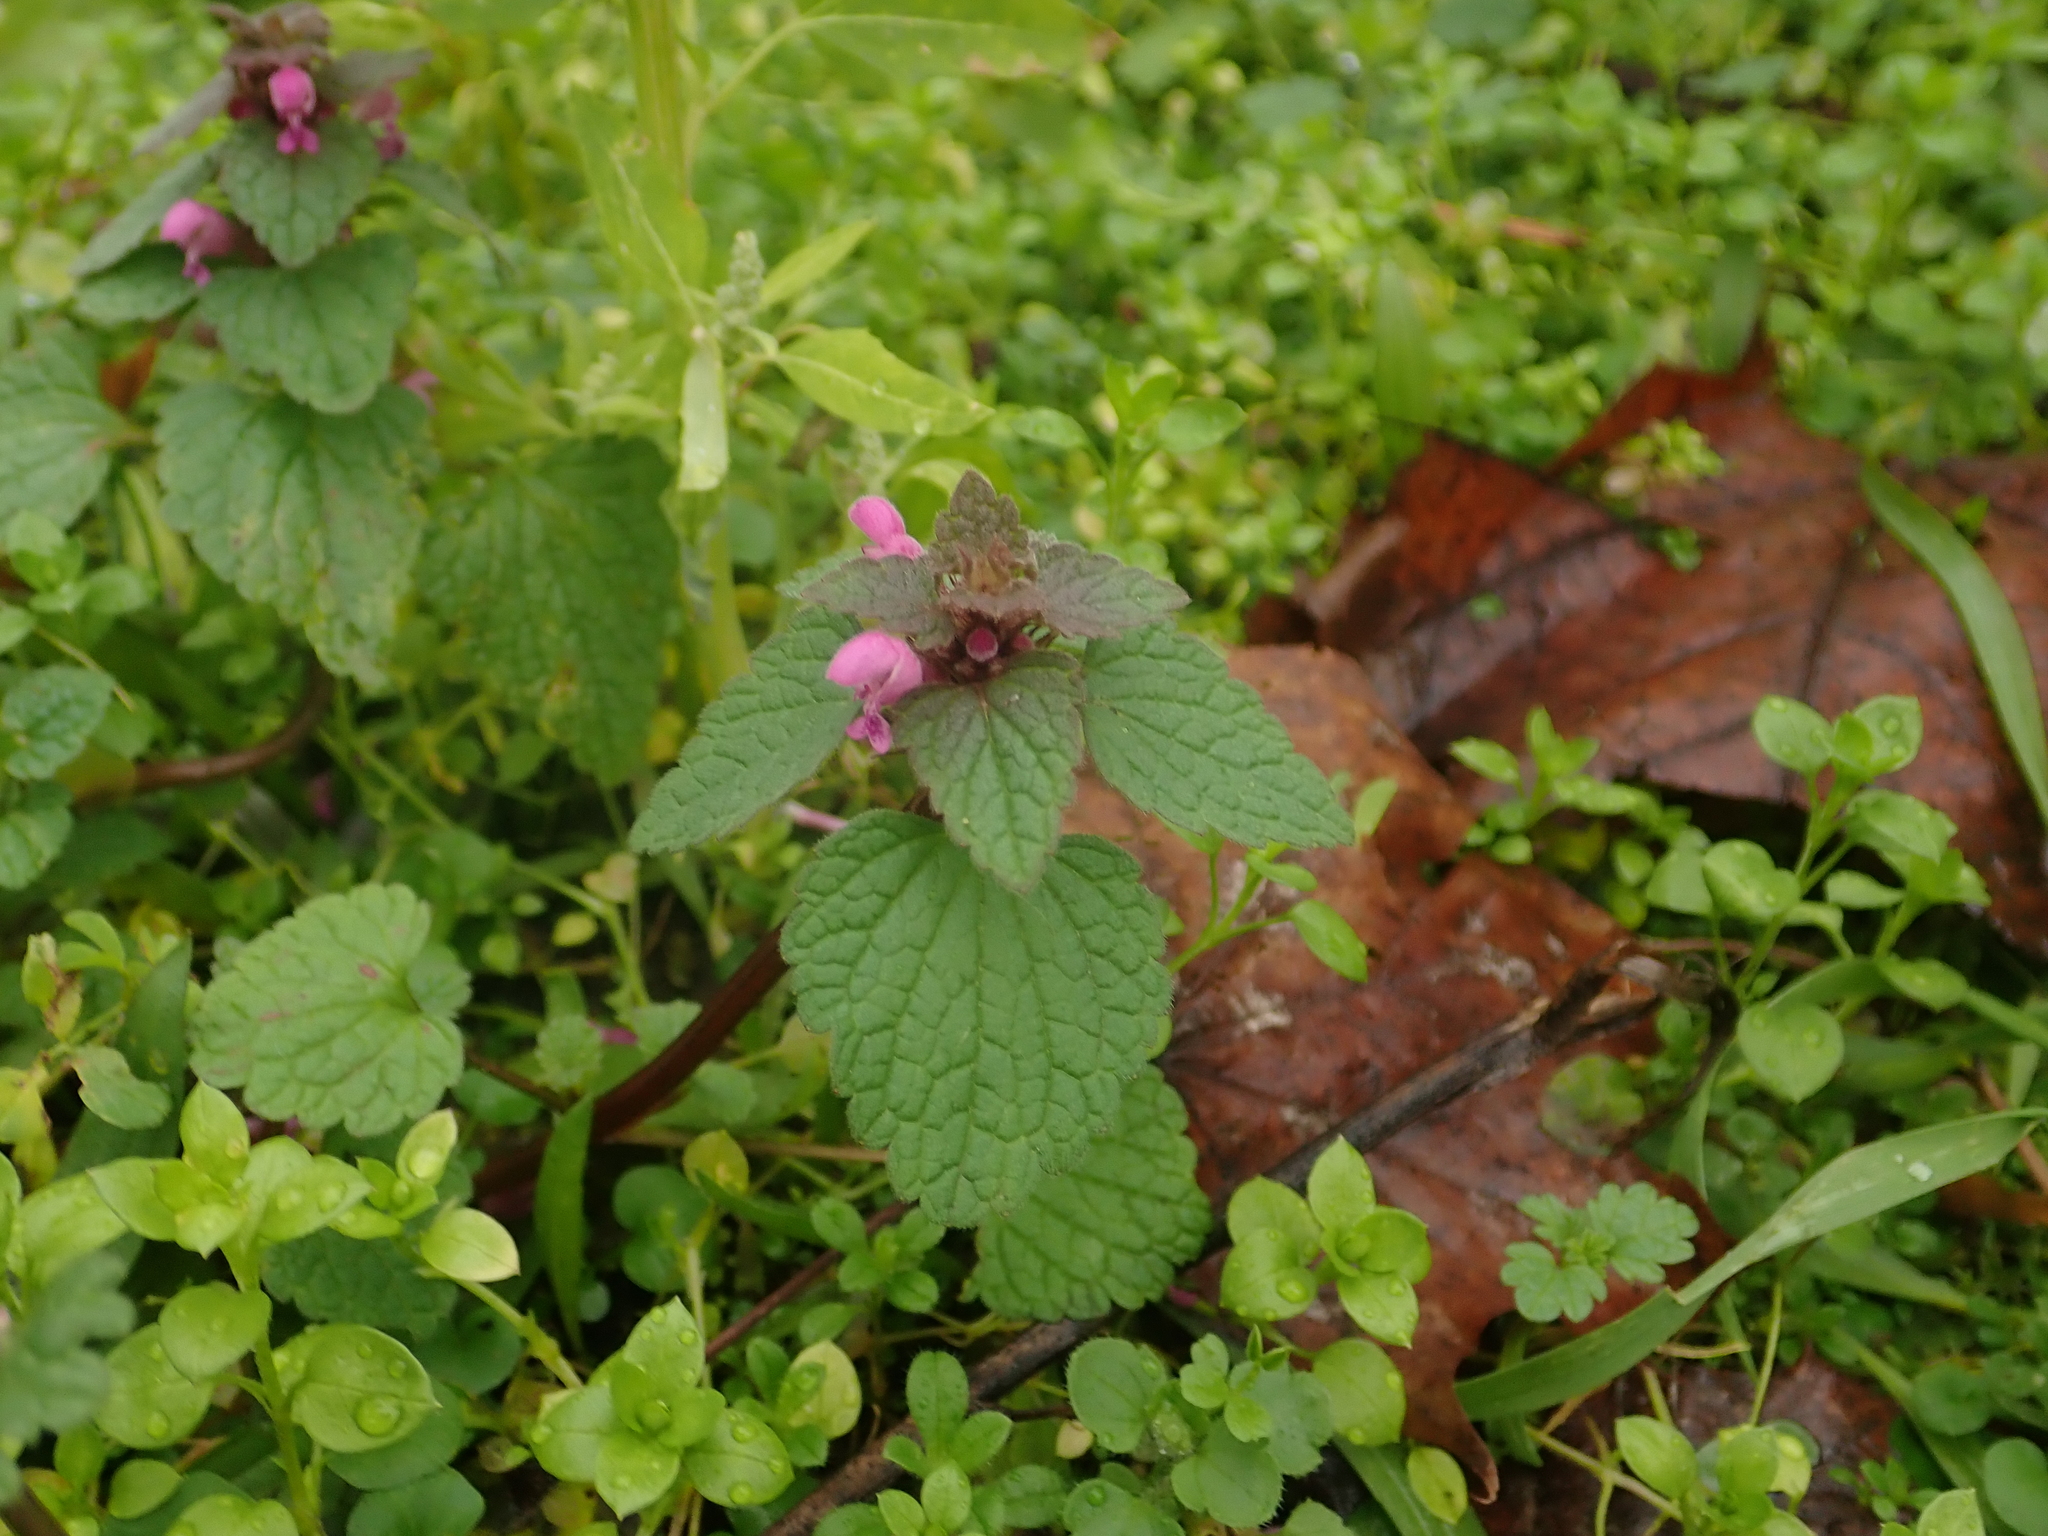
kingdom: Plantae
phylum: Tracheophyta
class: Magnoliopsida
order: Lamiales
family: Lamiaceae
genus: Lamium
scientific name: Lamium purpureum
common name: Red dead-nettle
